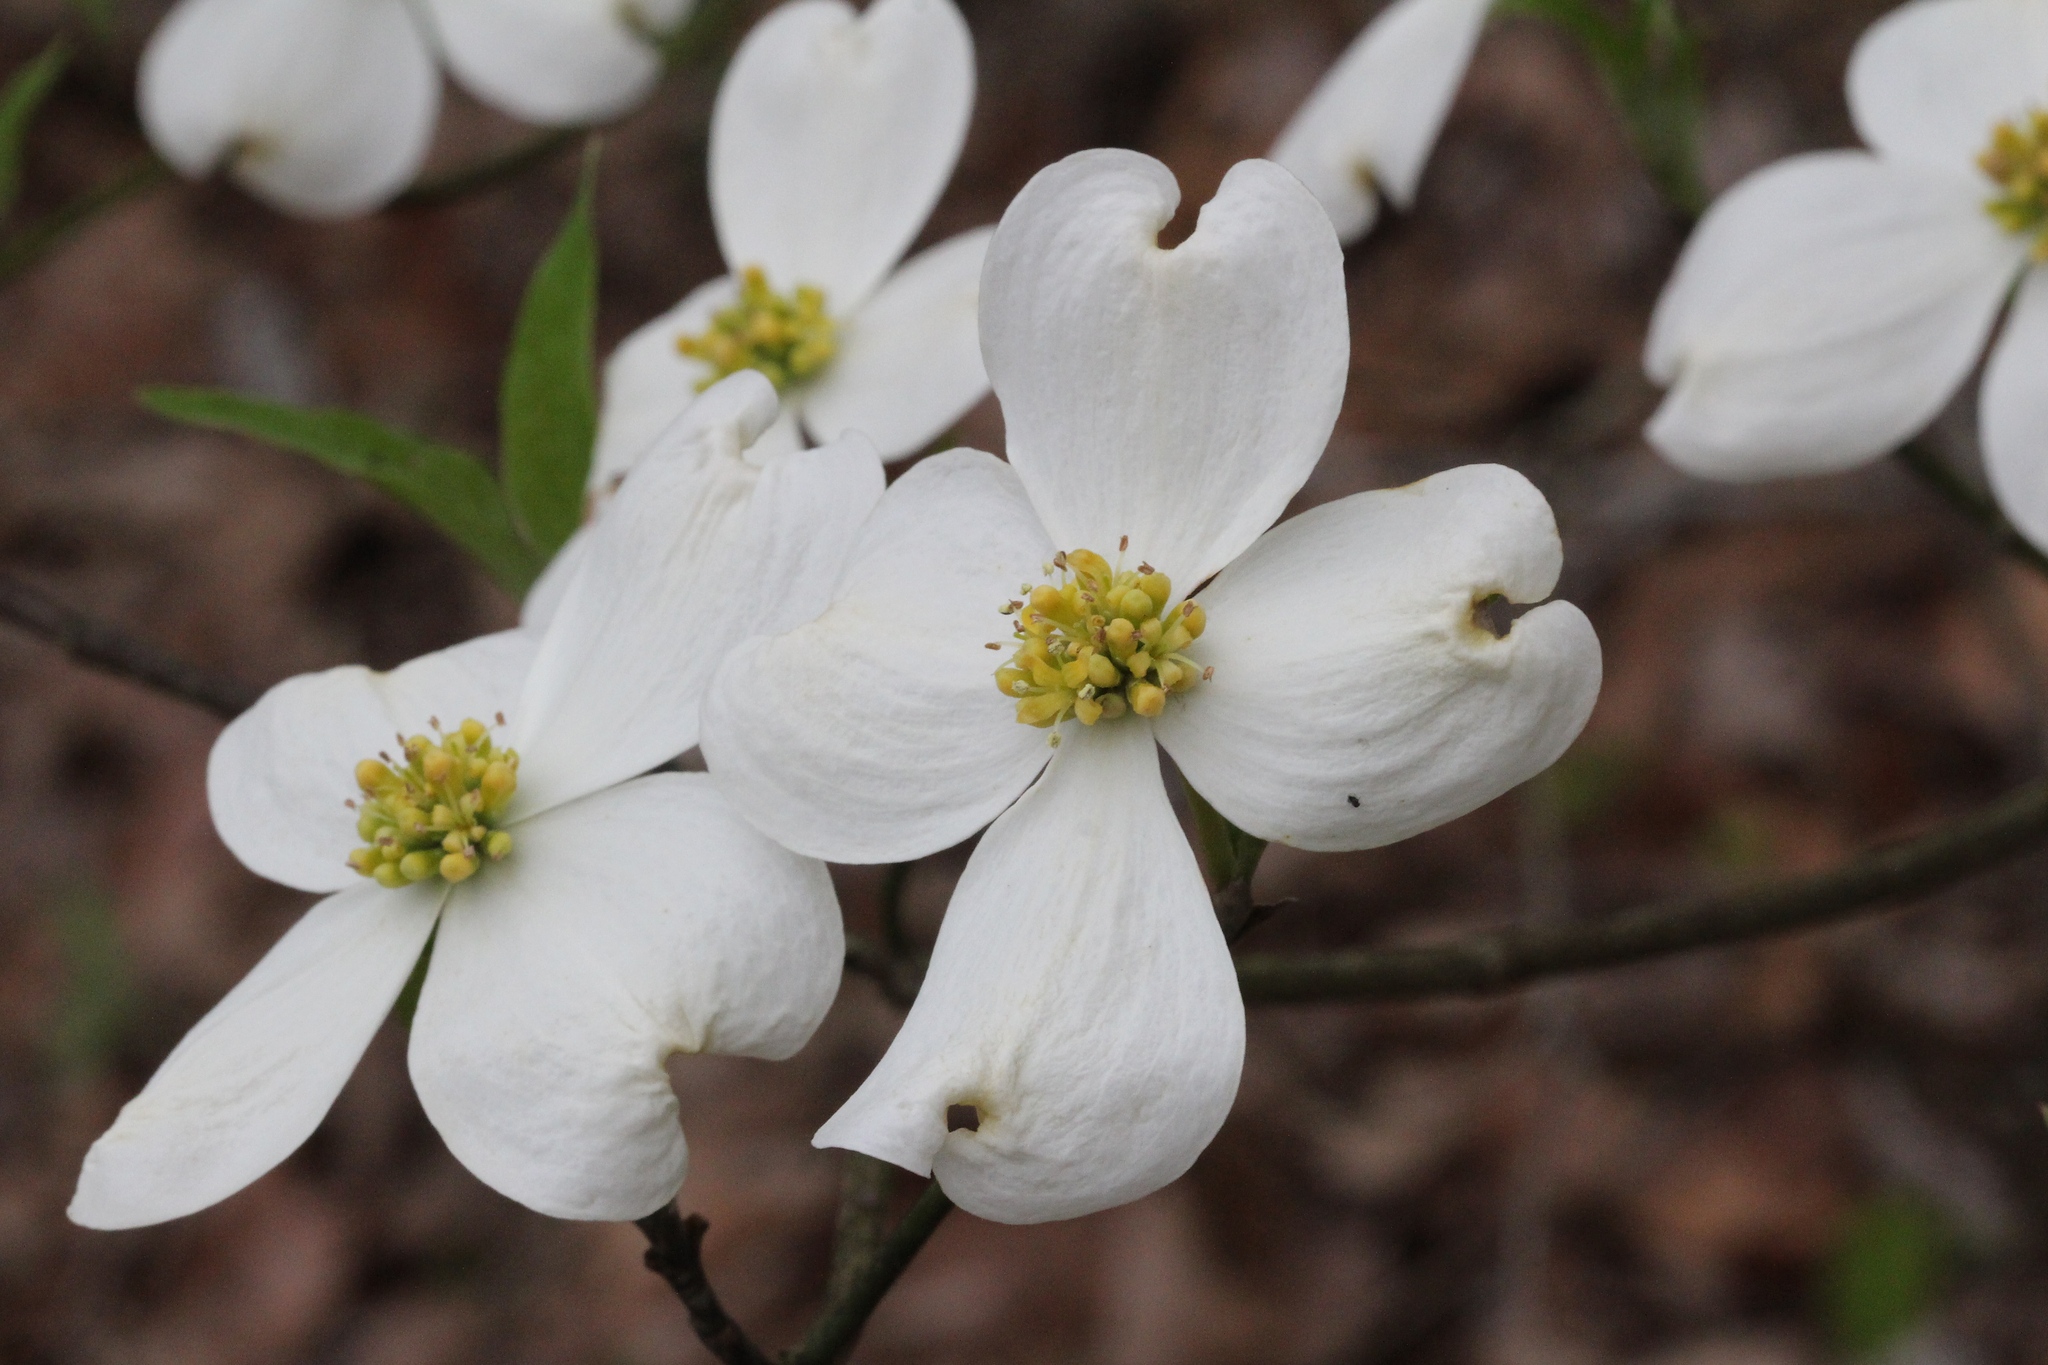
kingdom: Plantae
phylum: Tracheophyta
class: Magnoliopsida
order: Cornales
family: Cornaceae
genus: Cornus
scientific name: Cornus florida
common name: Flowering dogwood
